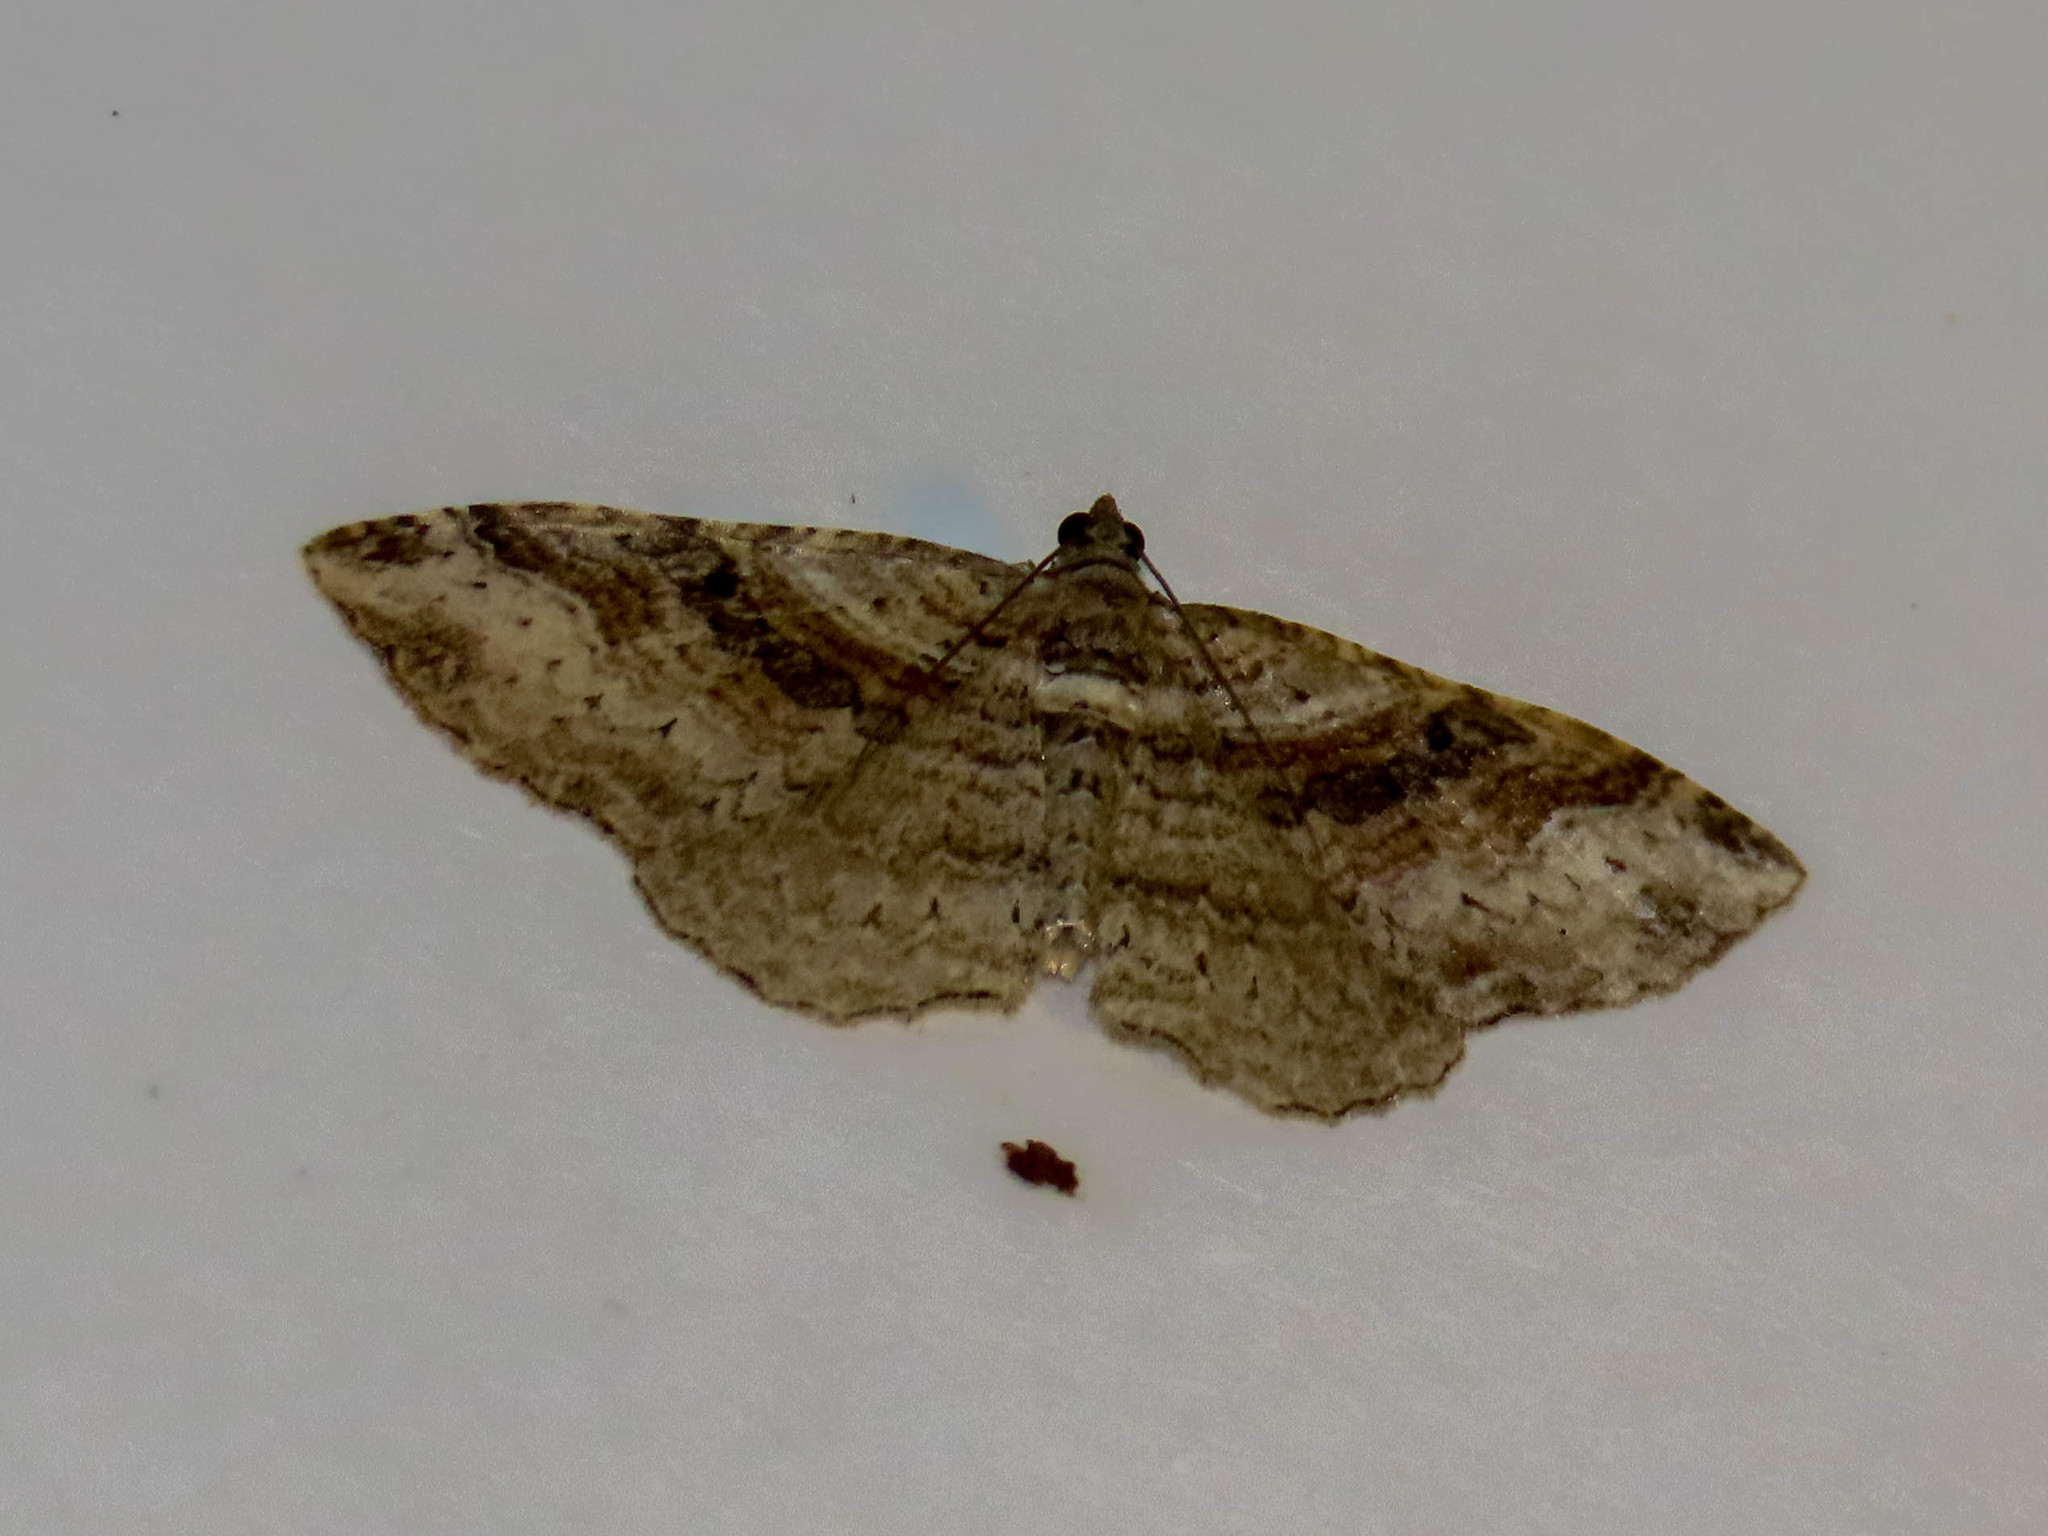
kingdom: Animalia
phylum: Arthropoda
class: Insecta
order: Lepidoptera
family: Geometridae
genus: Costaconvexa
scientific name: Costaconvexa centrostrigaria
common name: Bent-line carpet
